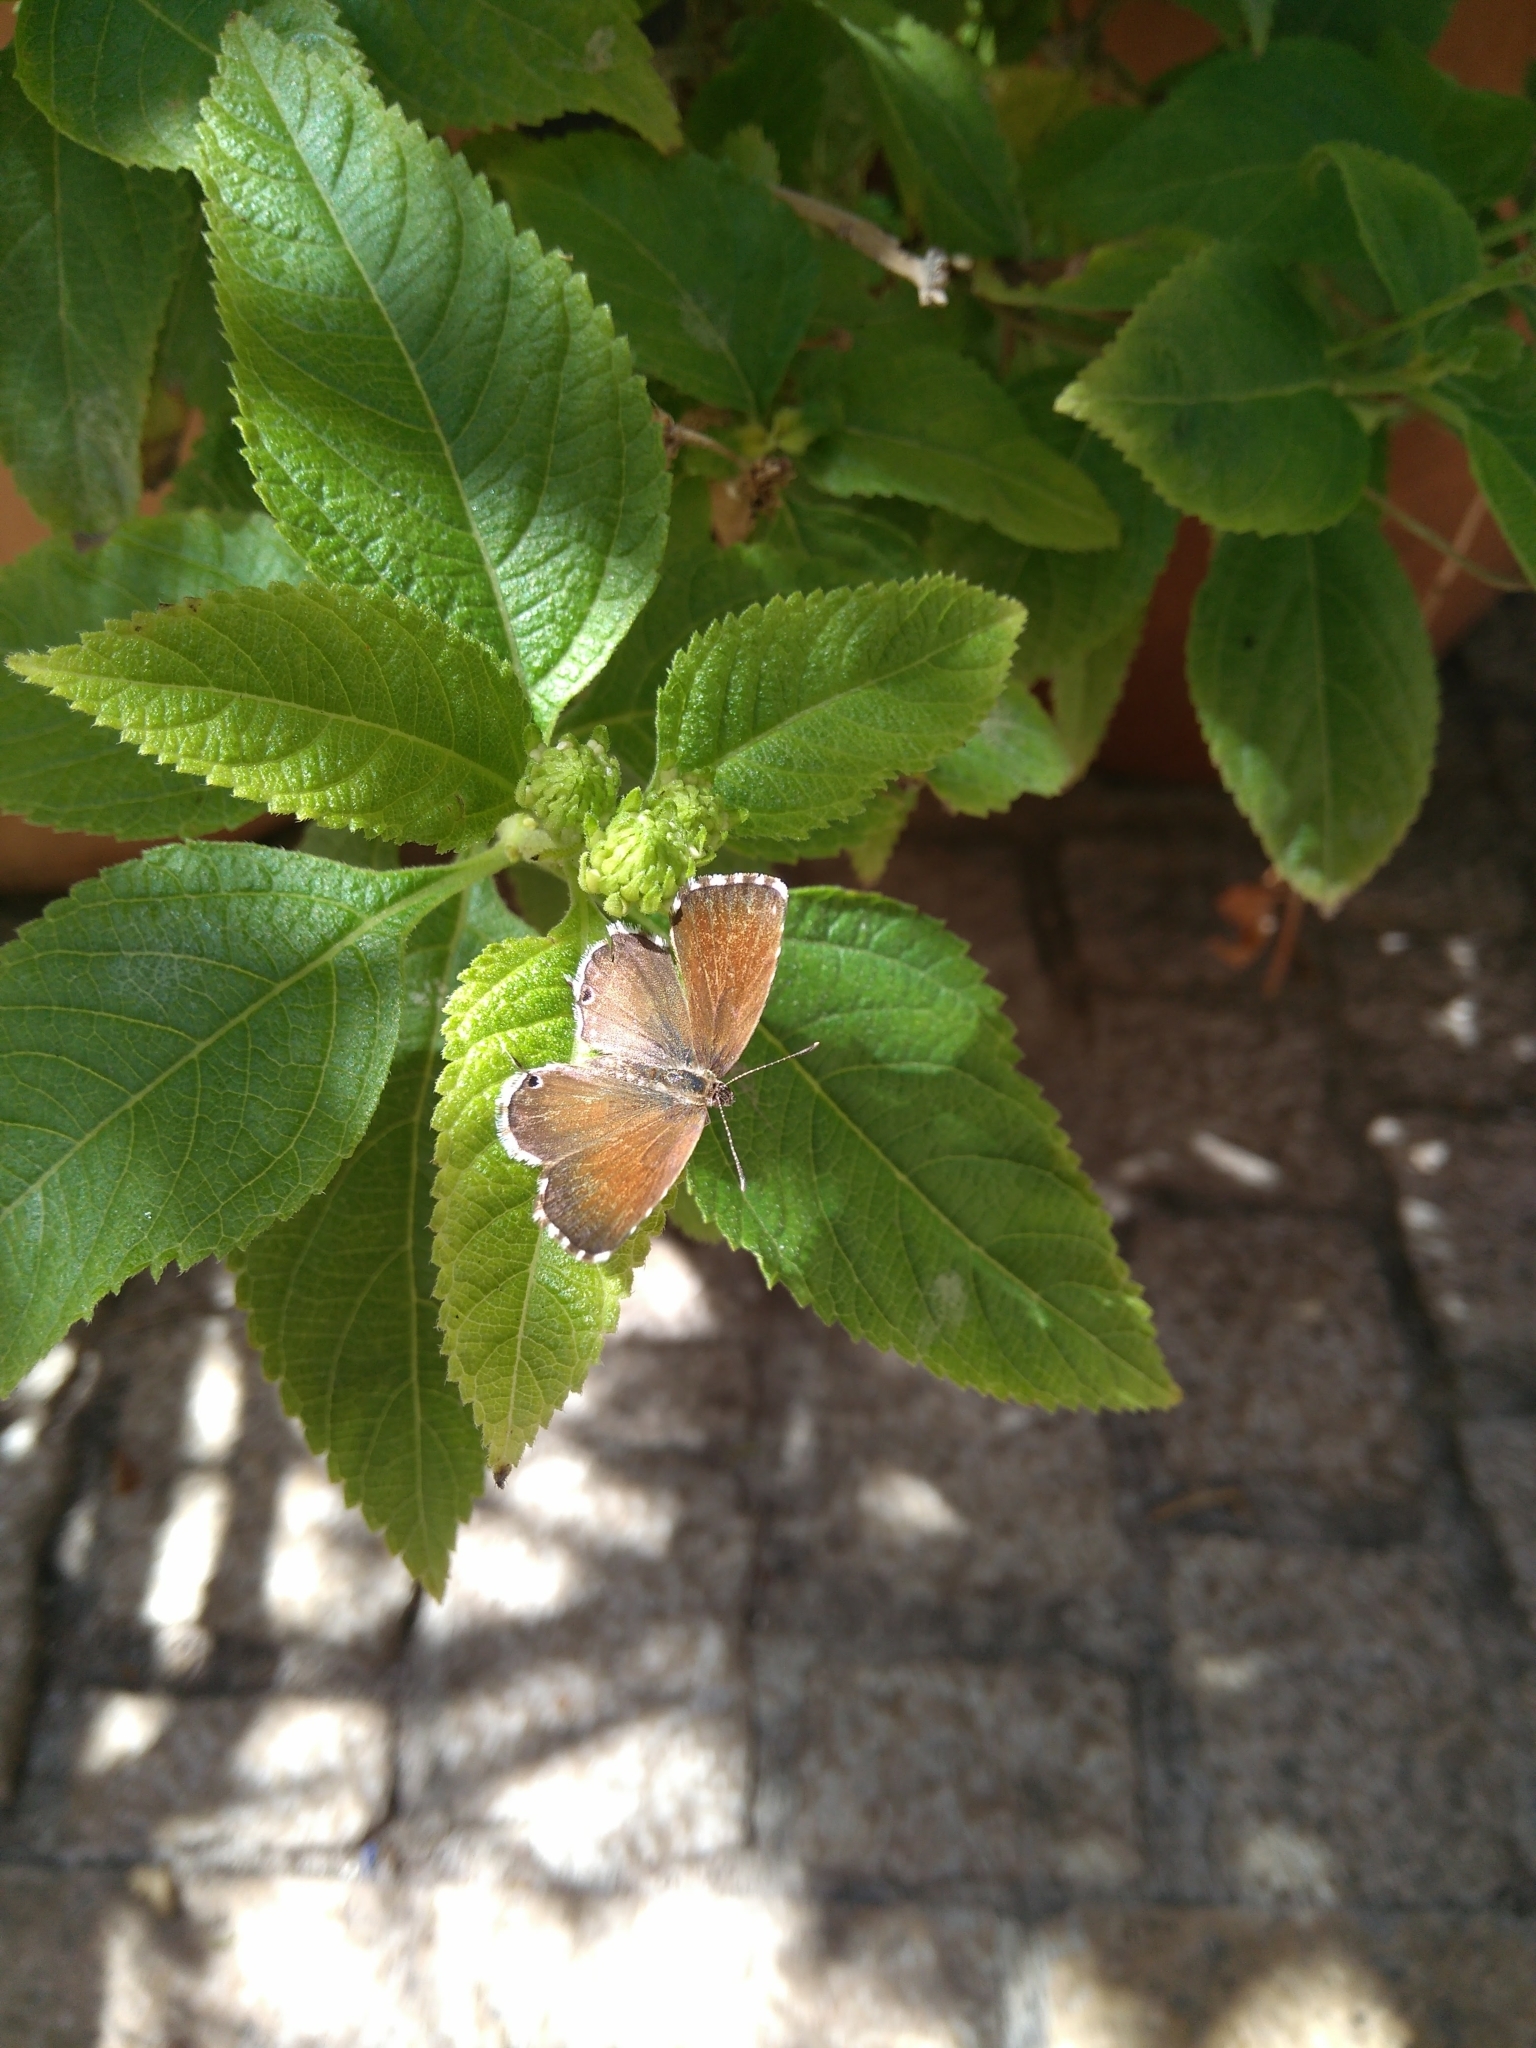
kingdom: Animalia
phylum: Arthropoda
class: Insecta
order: Lepidoptera
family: Lycaenidae
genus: Cacyreus
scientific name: Cacyreus marshalli
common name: Geranium bronze
